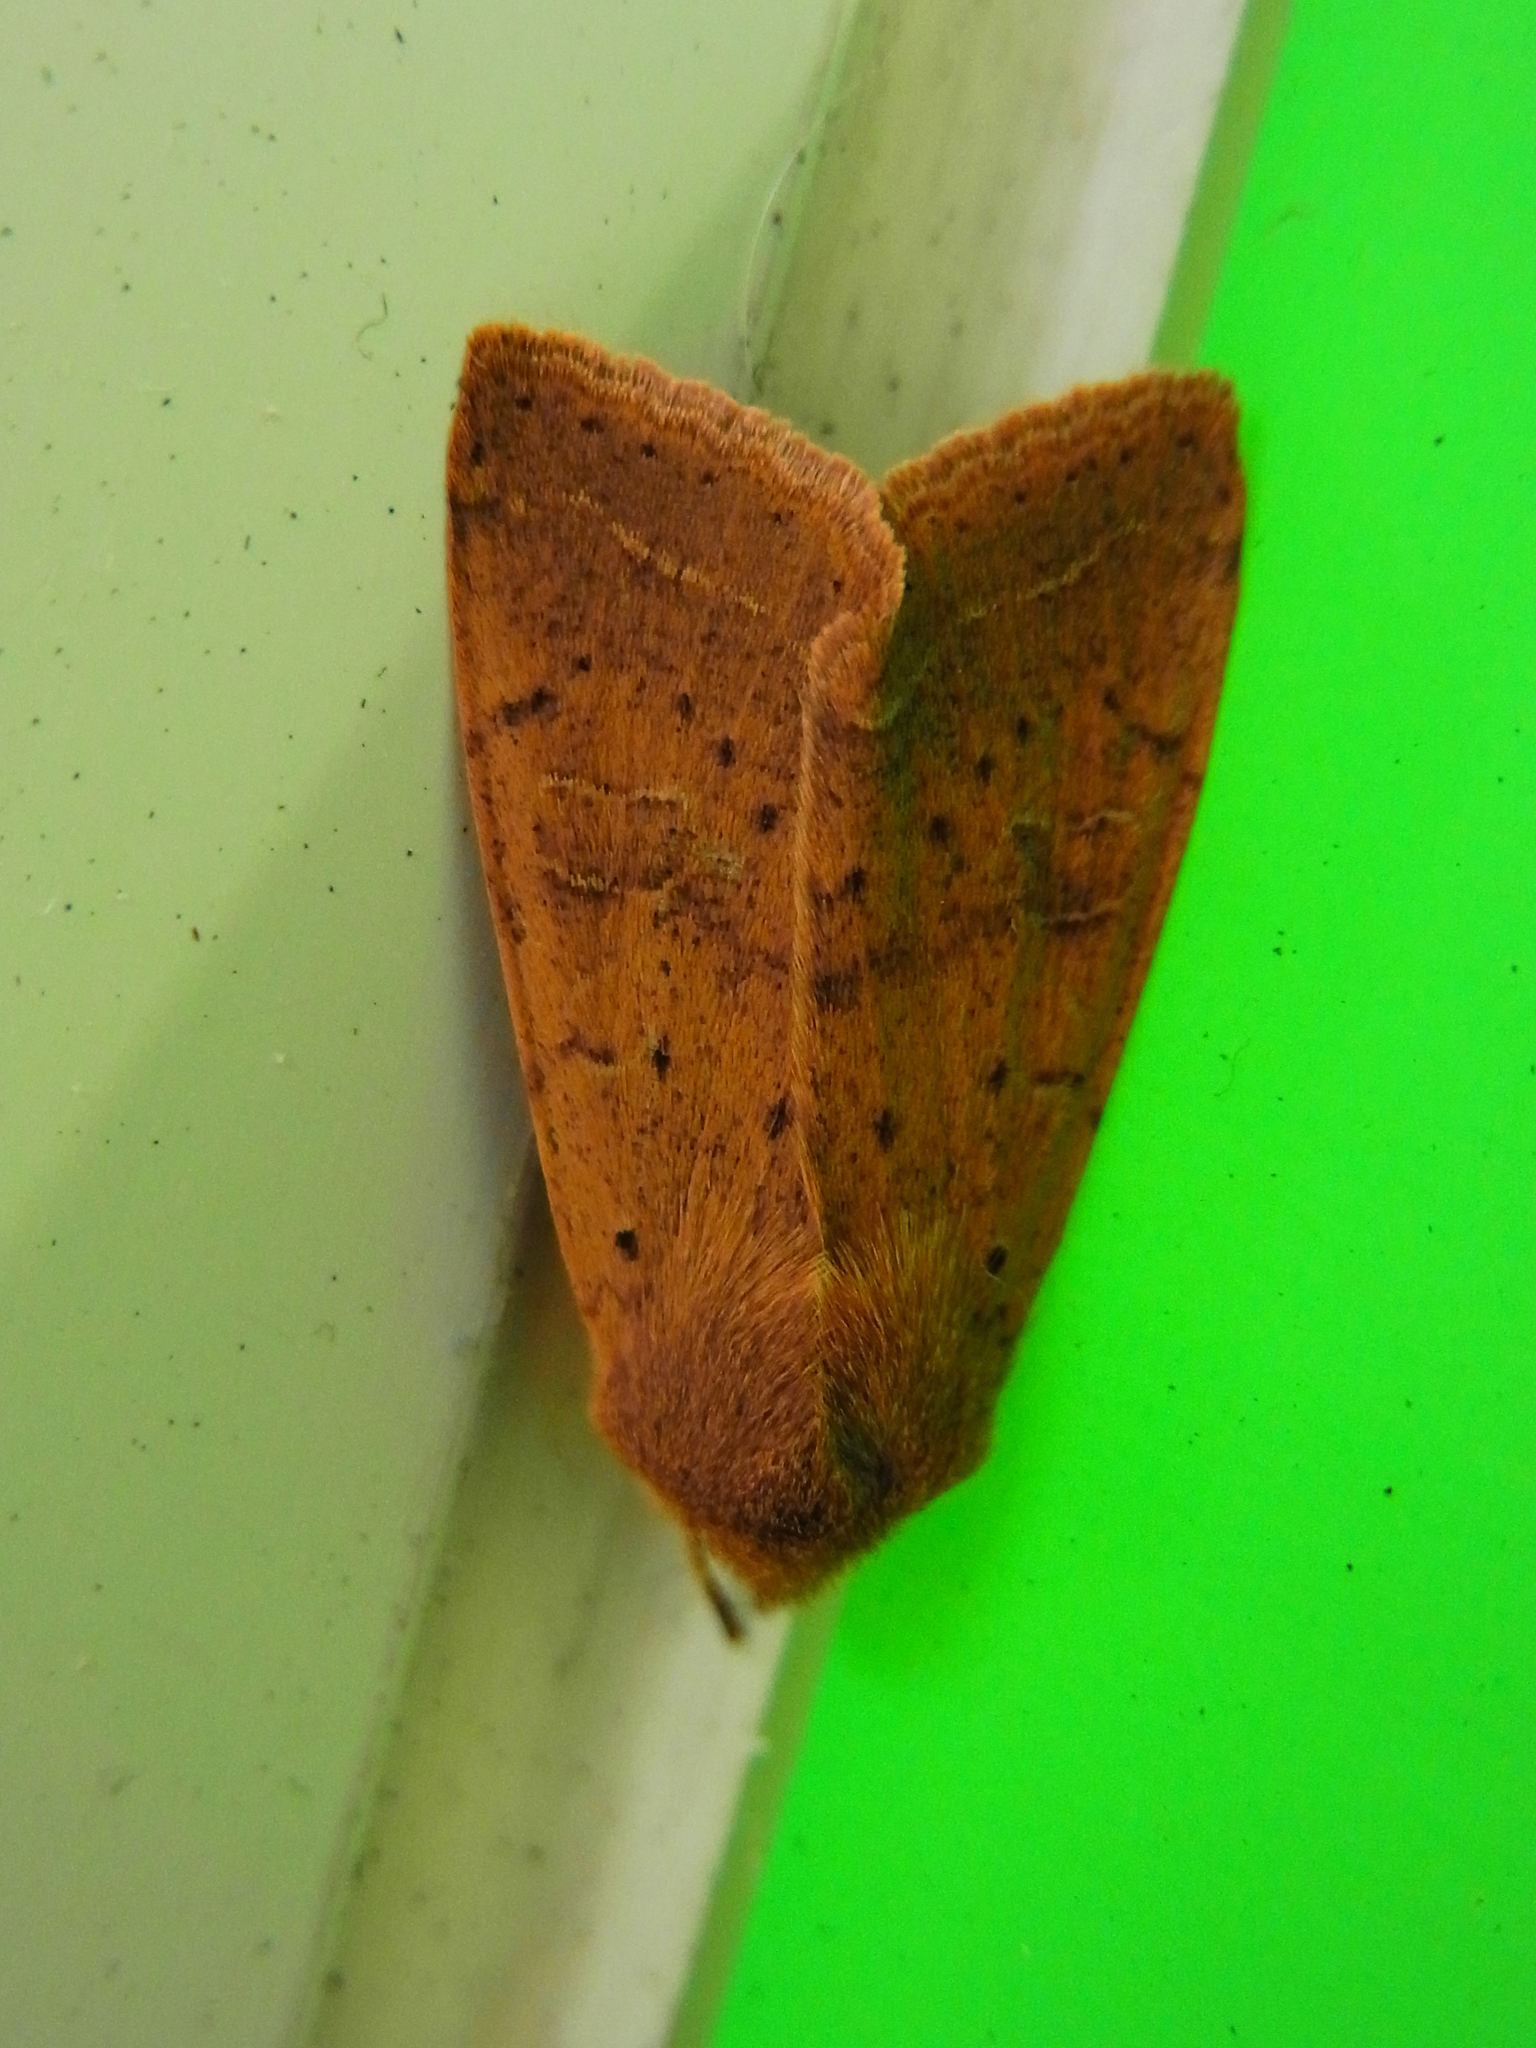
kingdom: Animalia
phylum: Arthropoda
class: Insecta
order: Lepidoptera
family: Noctuidae
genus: Orthosia
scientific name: Orthosia fausta
